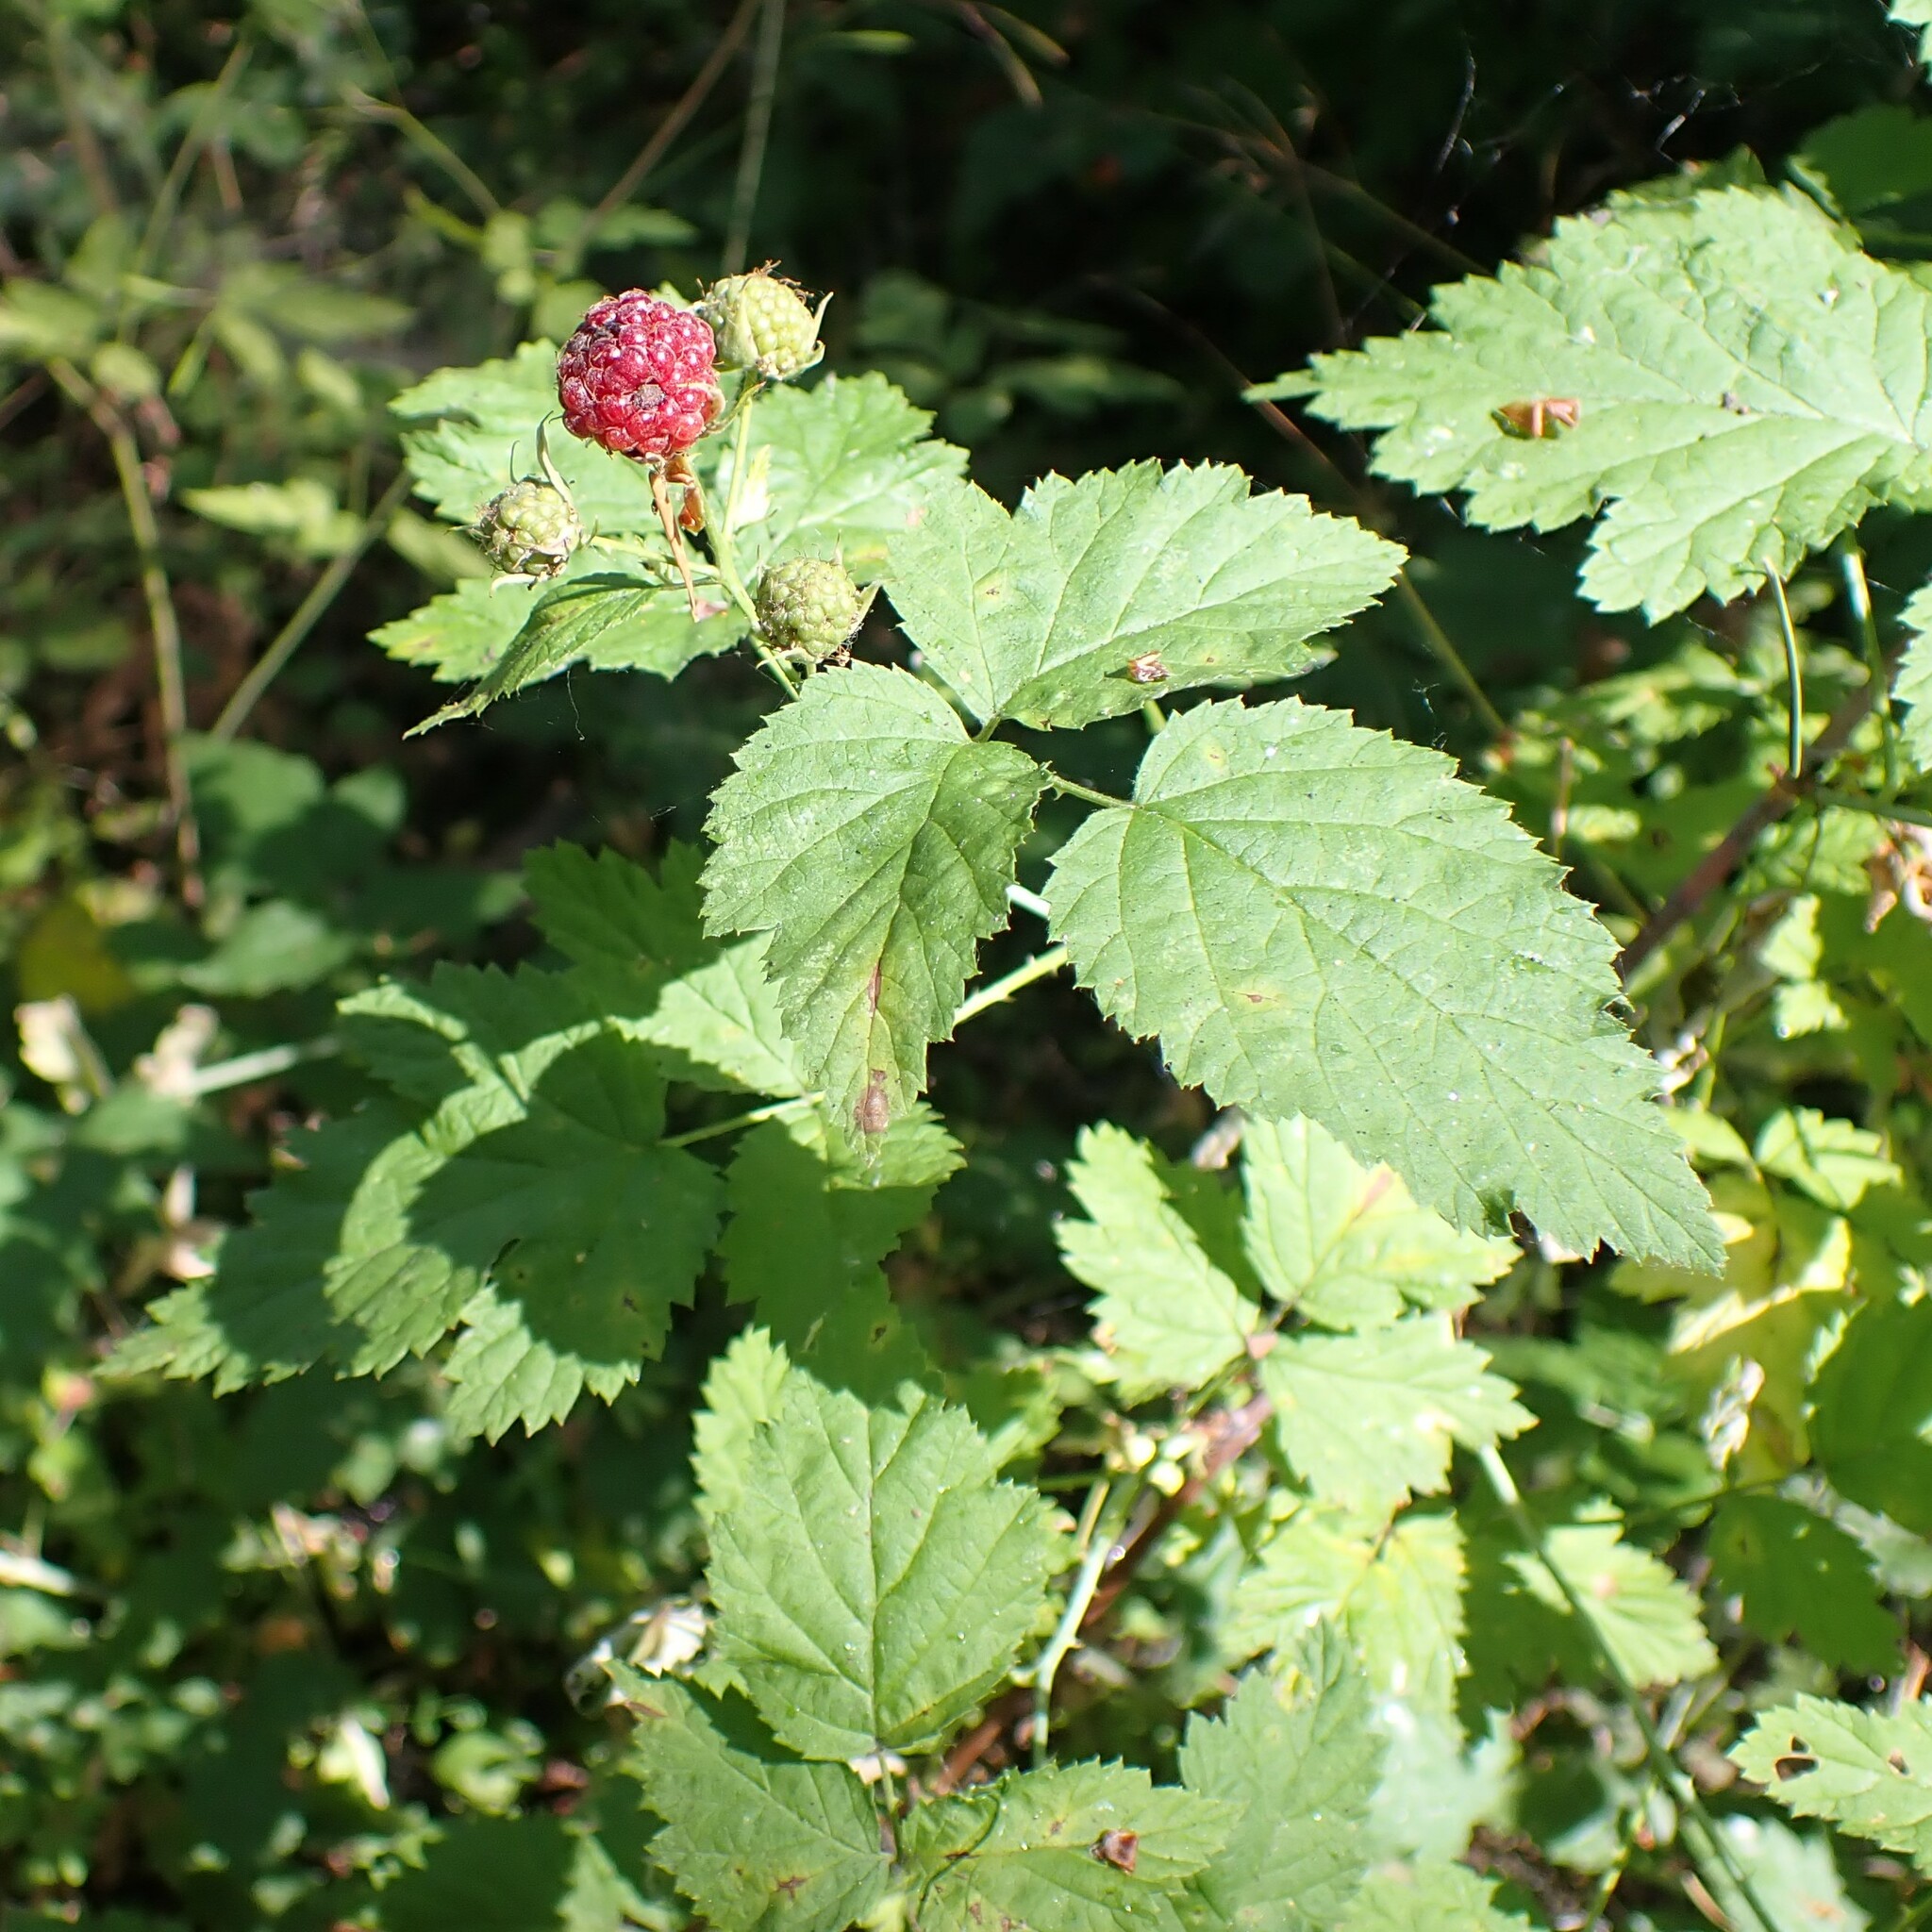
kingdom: Plantae
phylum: Tracheophyta
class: Magnoliopsida
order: Rosales
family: Rosaceae
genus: Rubus
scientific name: Rubus leucodermis
